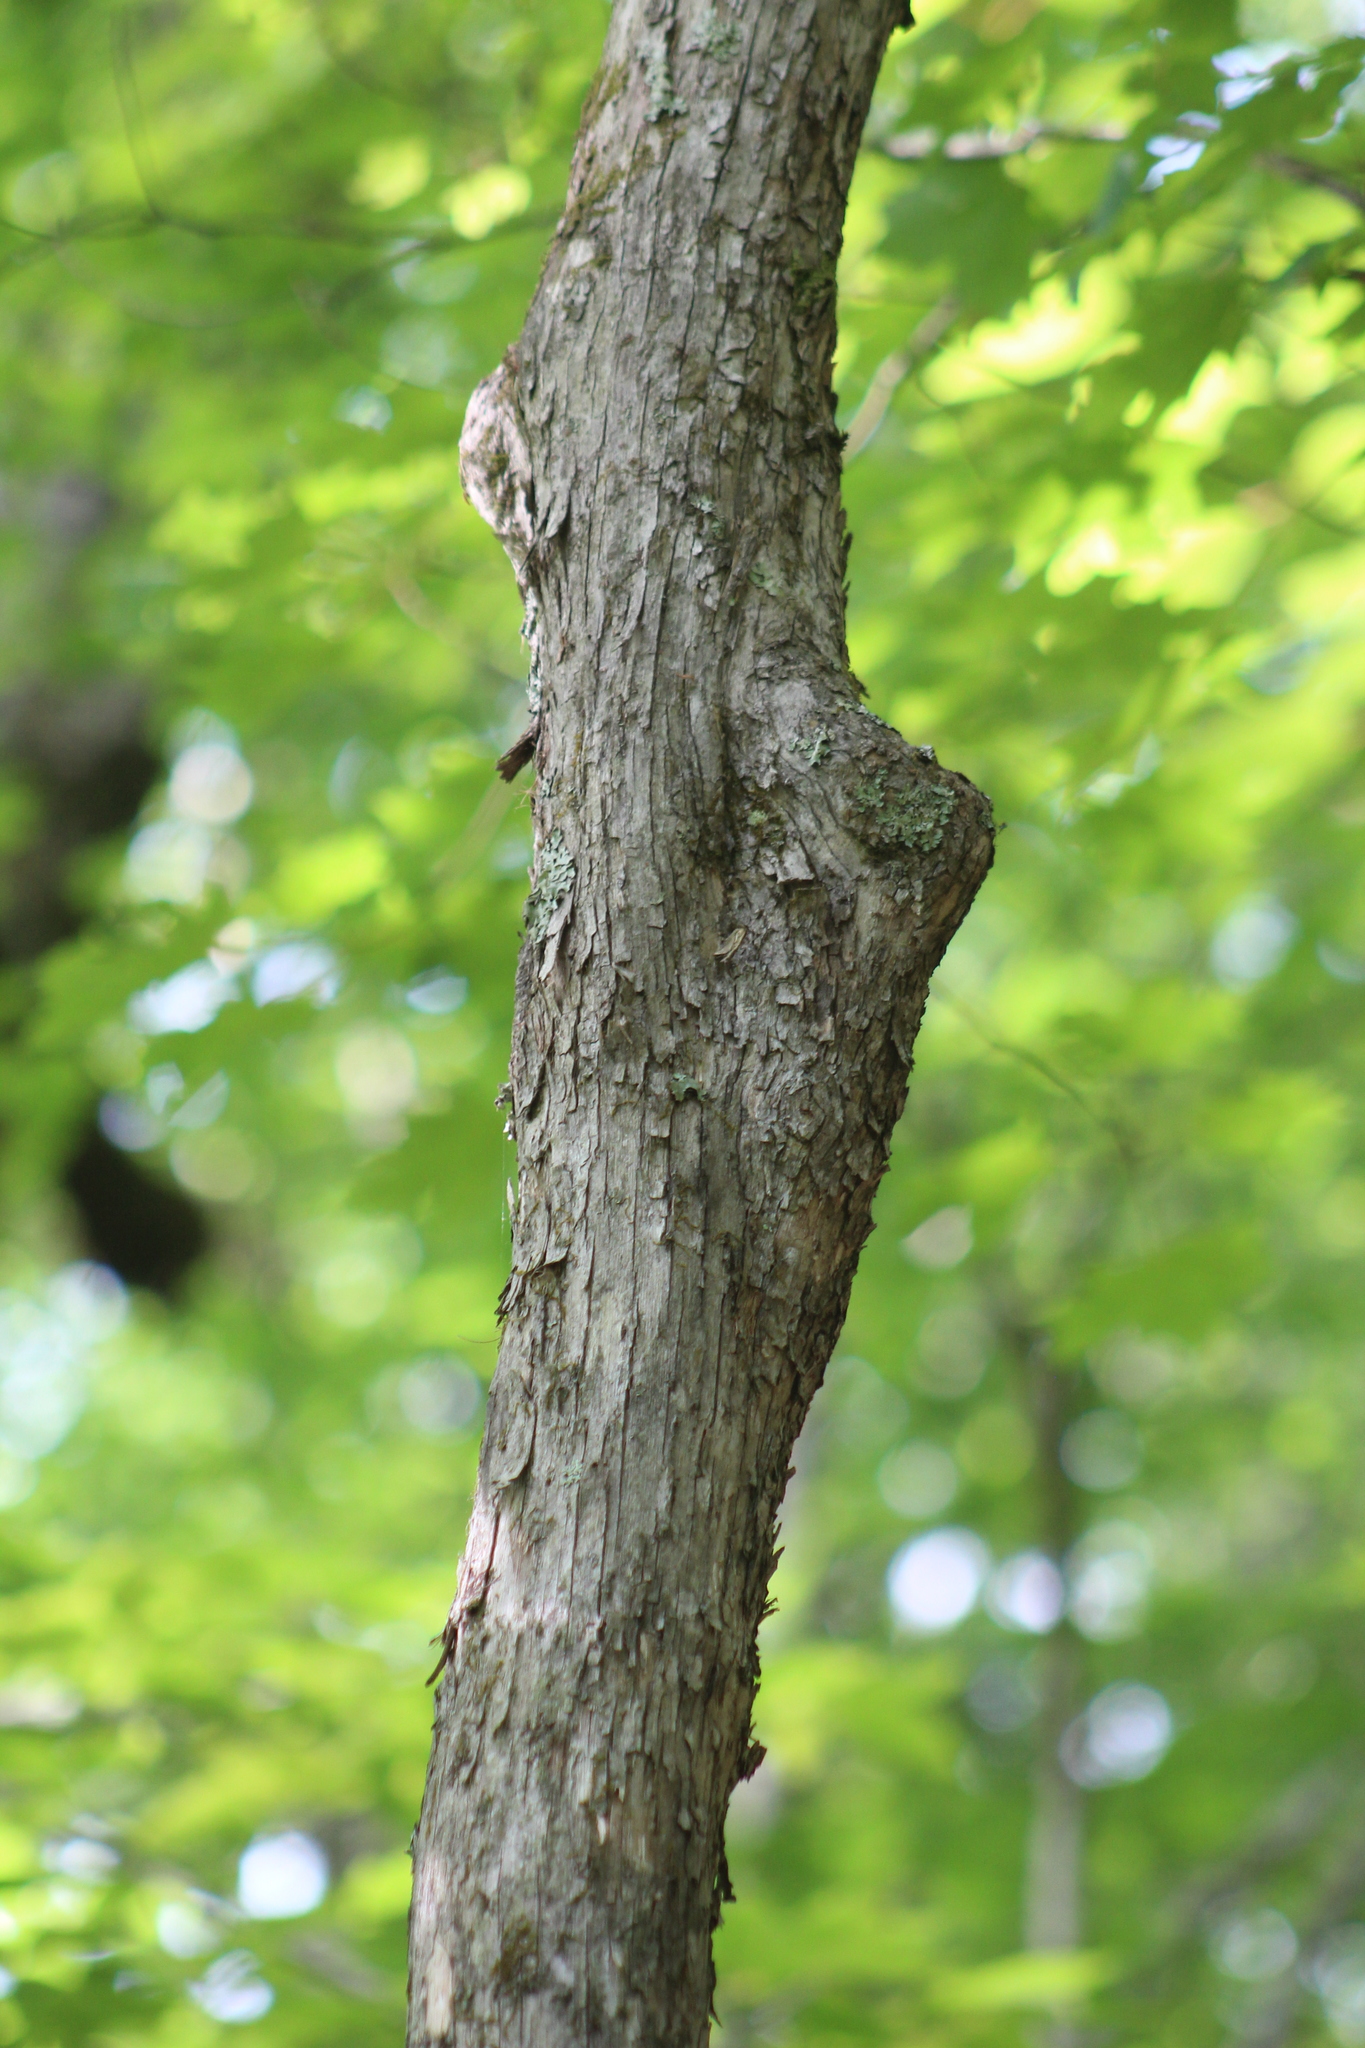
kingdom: Plantae
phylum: Tracheophyta
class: Magnoliopsida
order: Fagales
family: Betulaceae
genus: Ostrya
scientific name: Ostrya virginiana
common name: Ironwood
